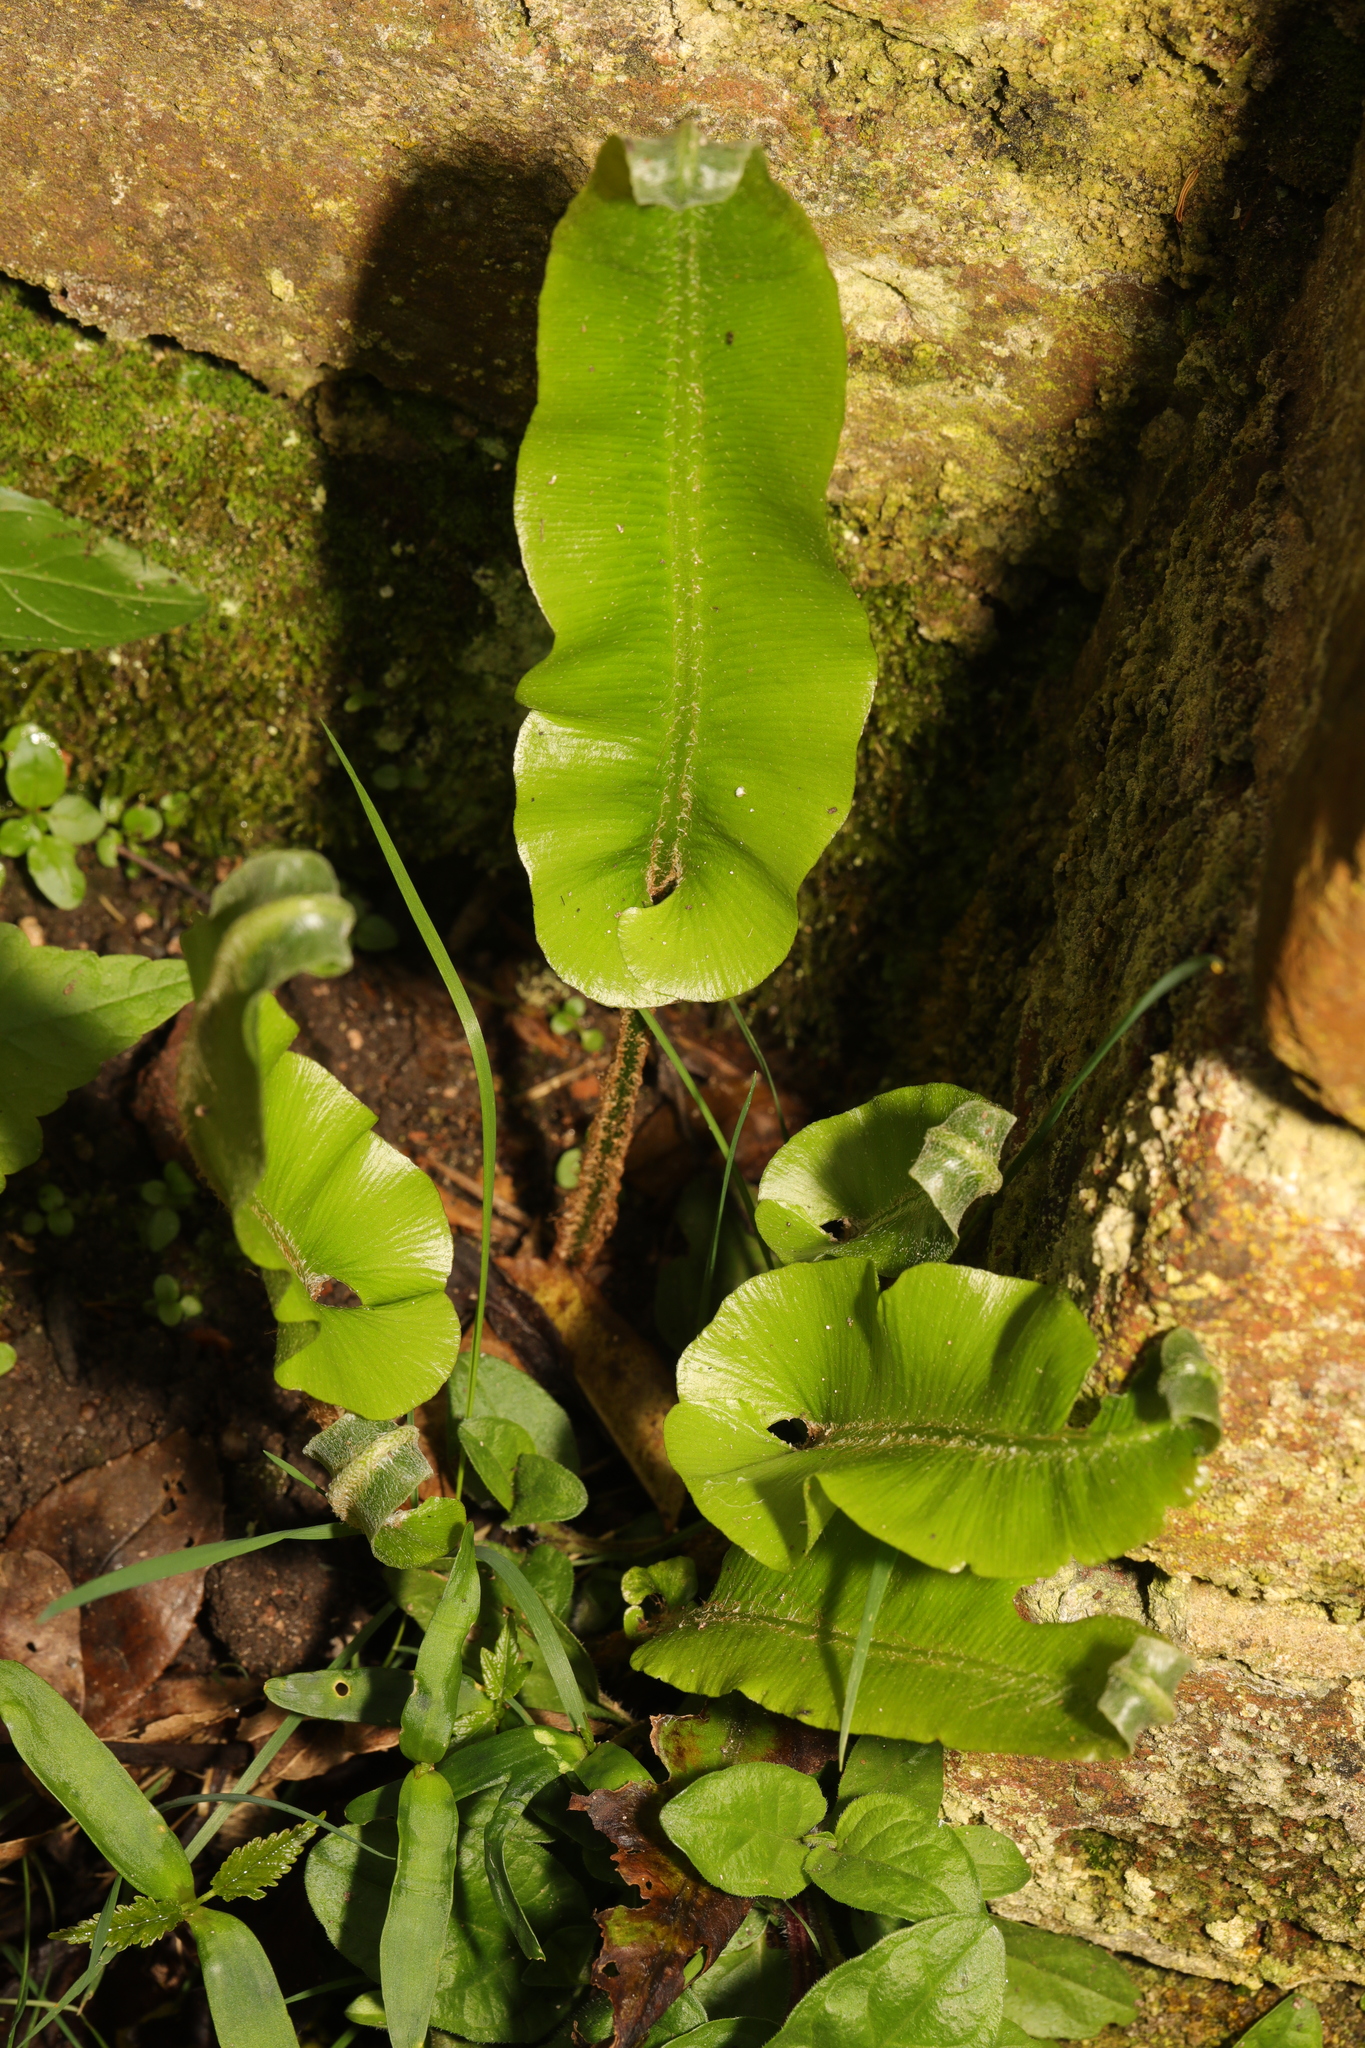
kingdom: Plantae
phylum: Tracheophyta
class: Polypodiopsida
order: Polypodiales
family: Aspleniaceae
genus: Asplenium
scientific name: Asplenium scolopendrium
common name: Hart's-tongue fern
